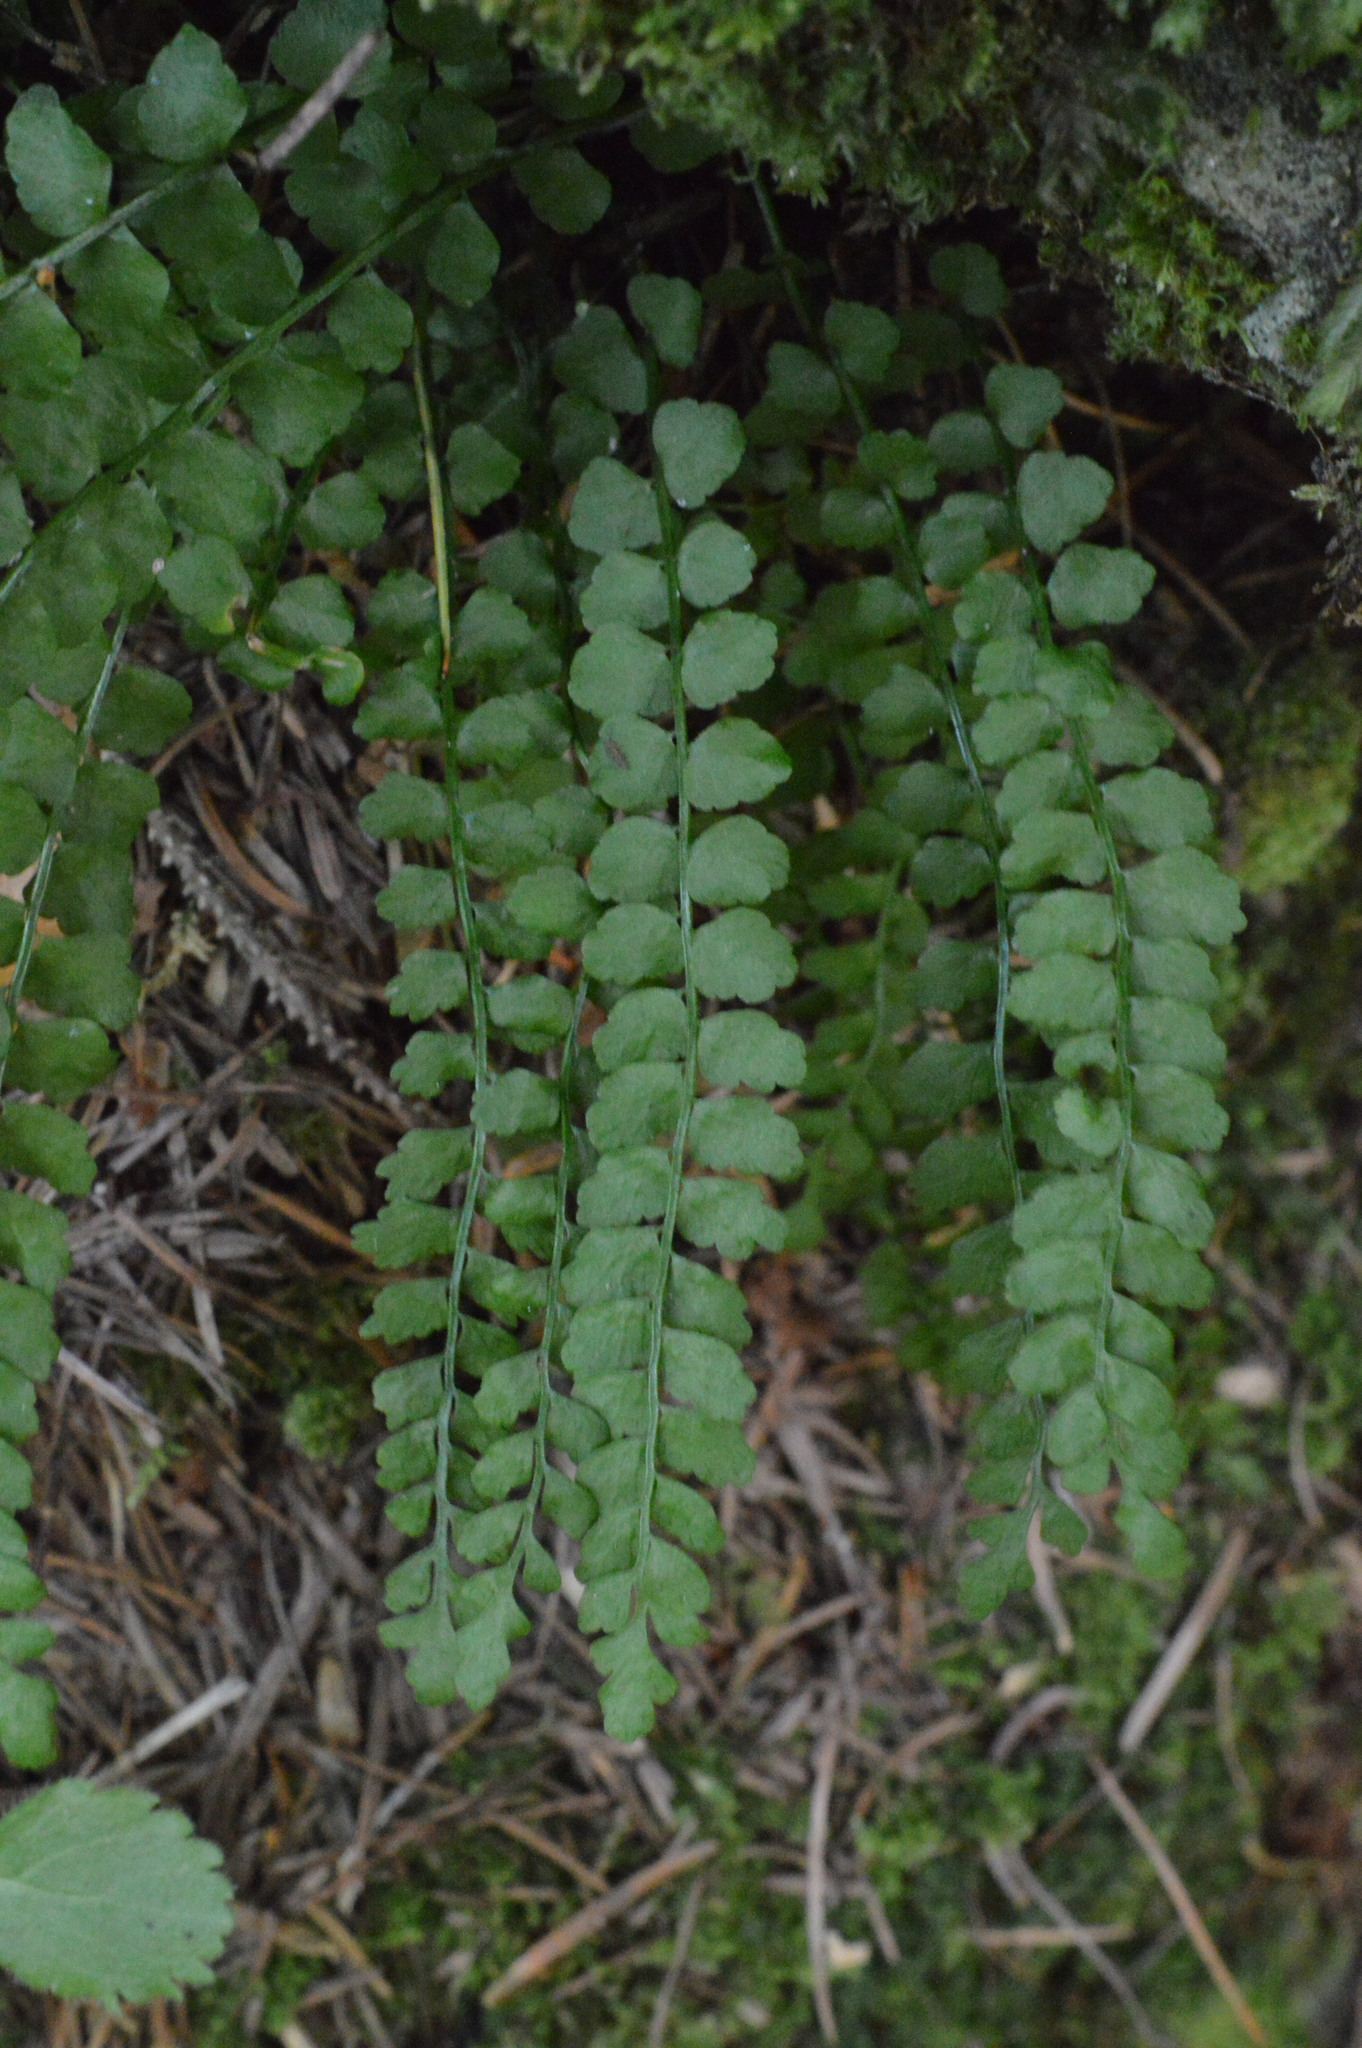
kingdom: Plantae
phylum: Tracheophyta
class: Polypodiopsida
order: Polypodiales
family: Aspleniaceae
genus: Asplenium
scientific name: Asplenium viride
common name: Green spleenwort
